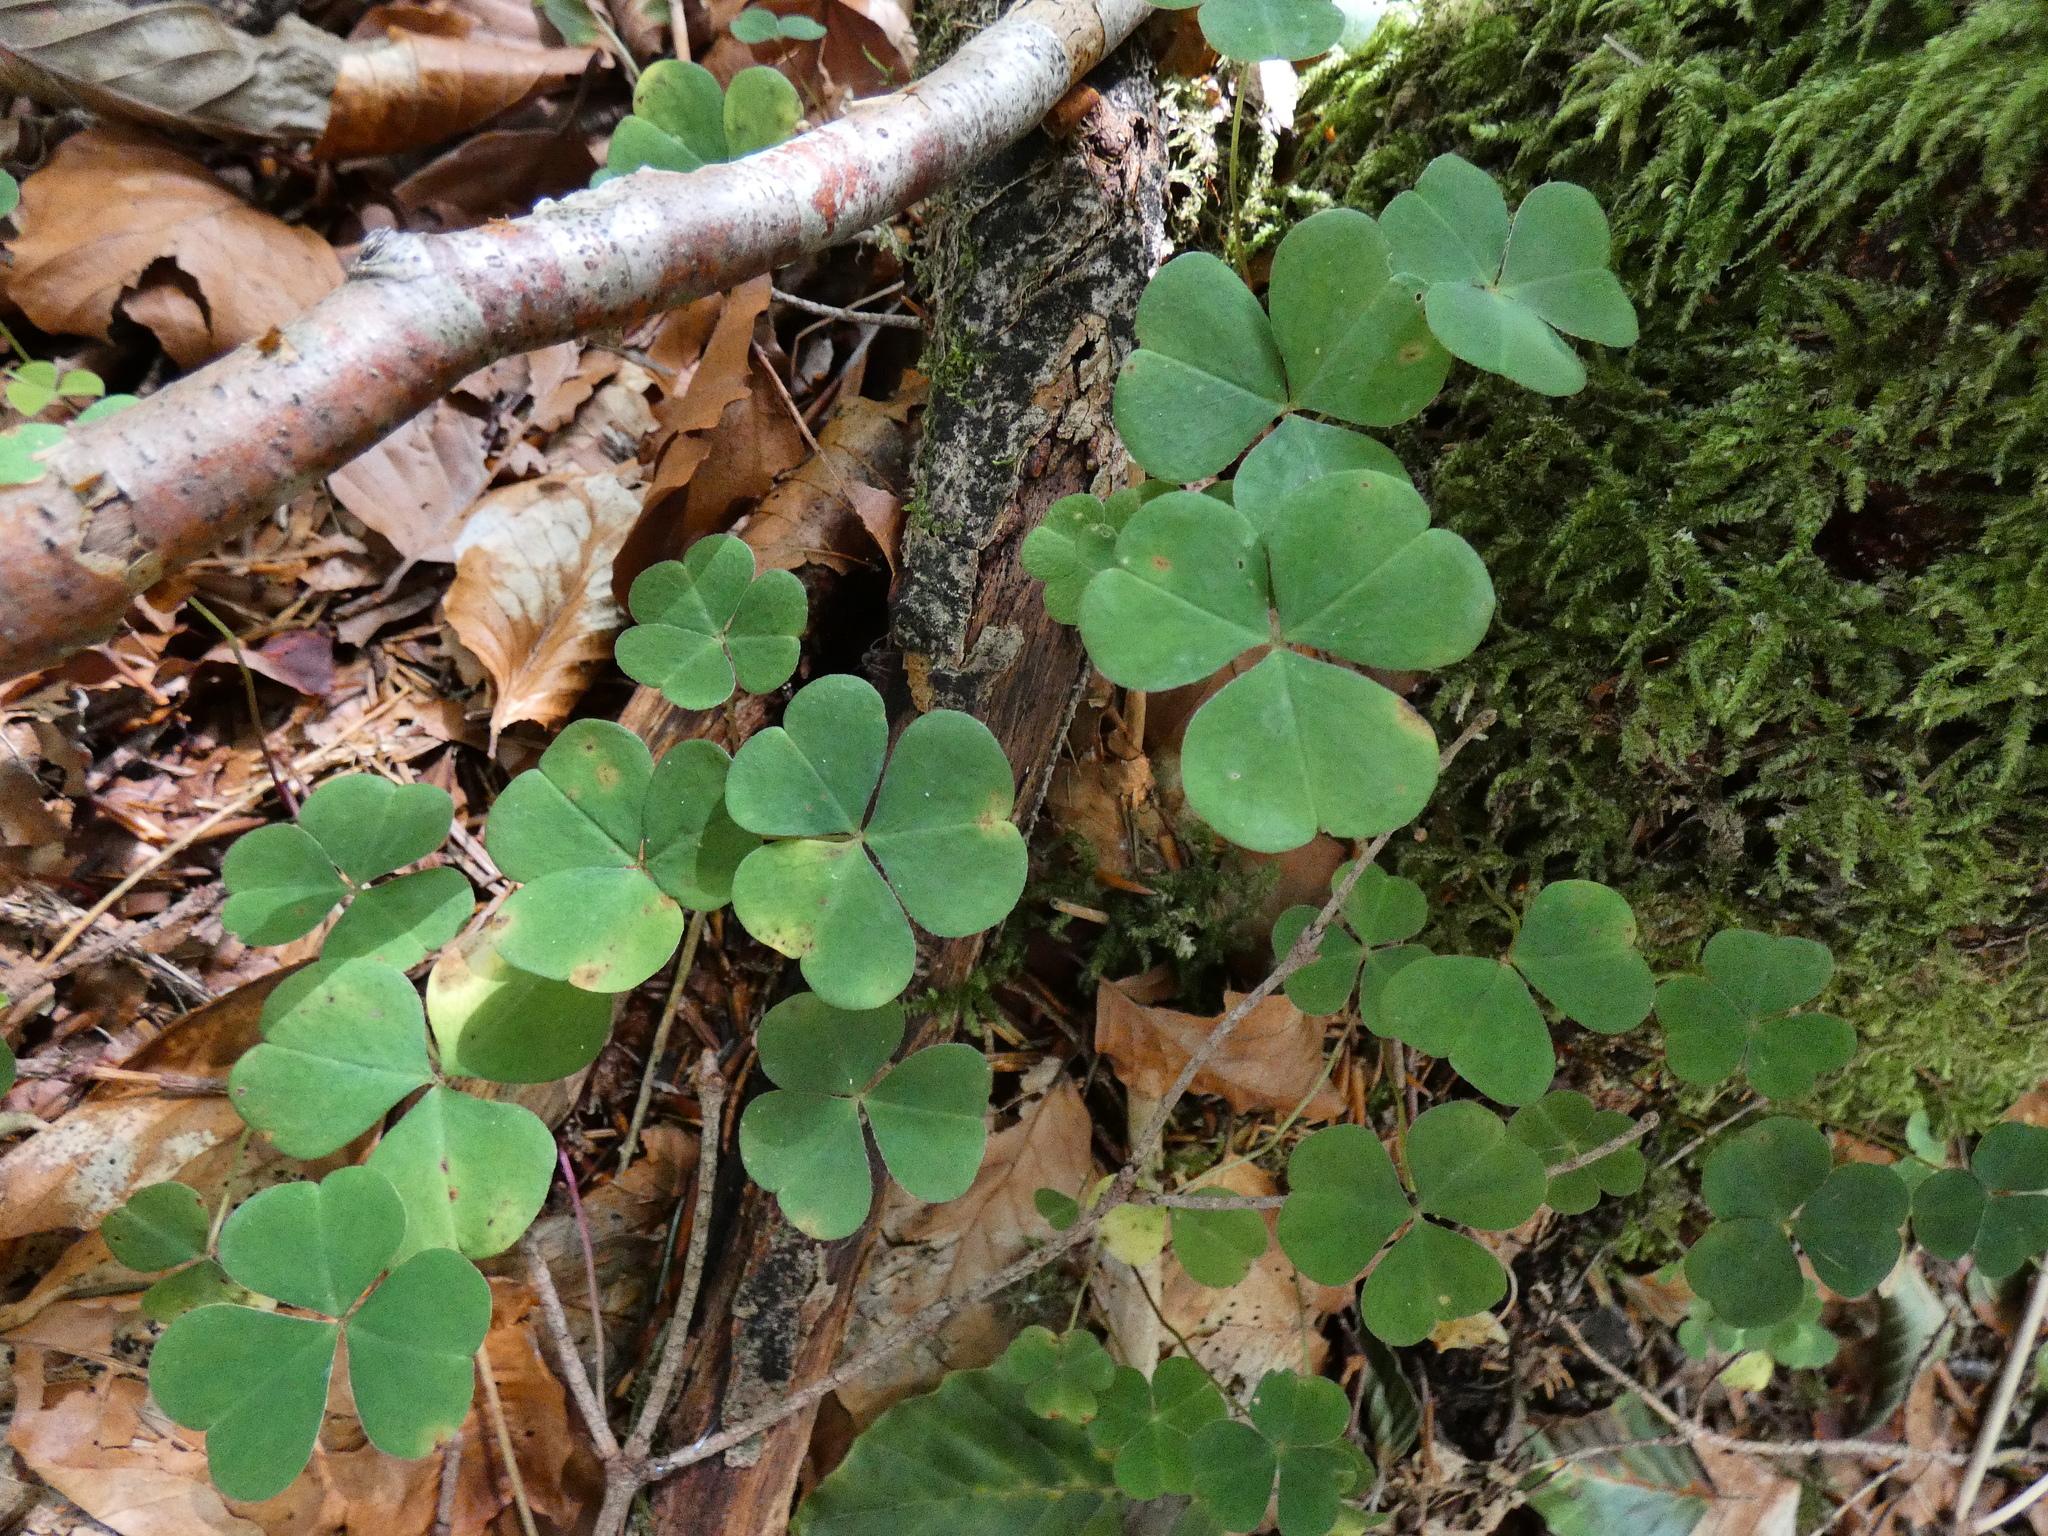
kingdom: Plantae
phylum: Tracheophyta
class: Magnoliopsida
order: Oxalidales
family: Oxalidaceae
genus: Oxalis
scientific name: Oxalis acetosella
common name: Wood-sorrel
